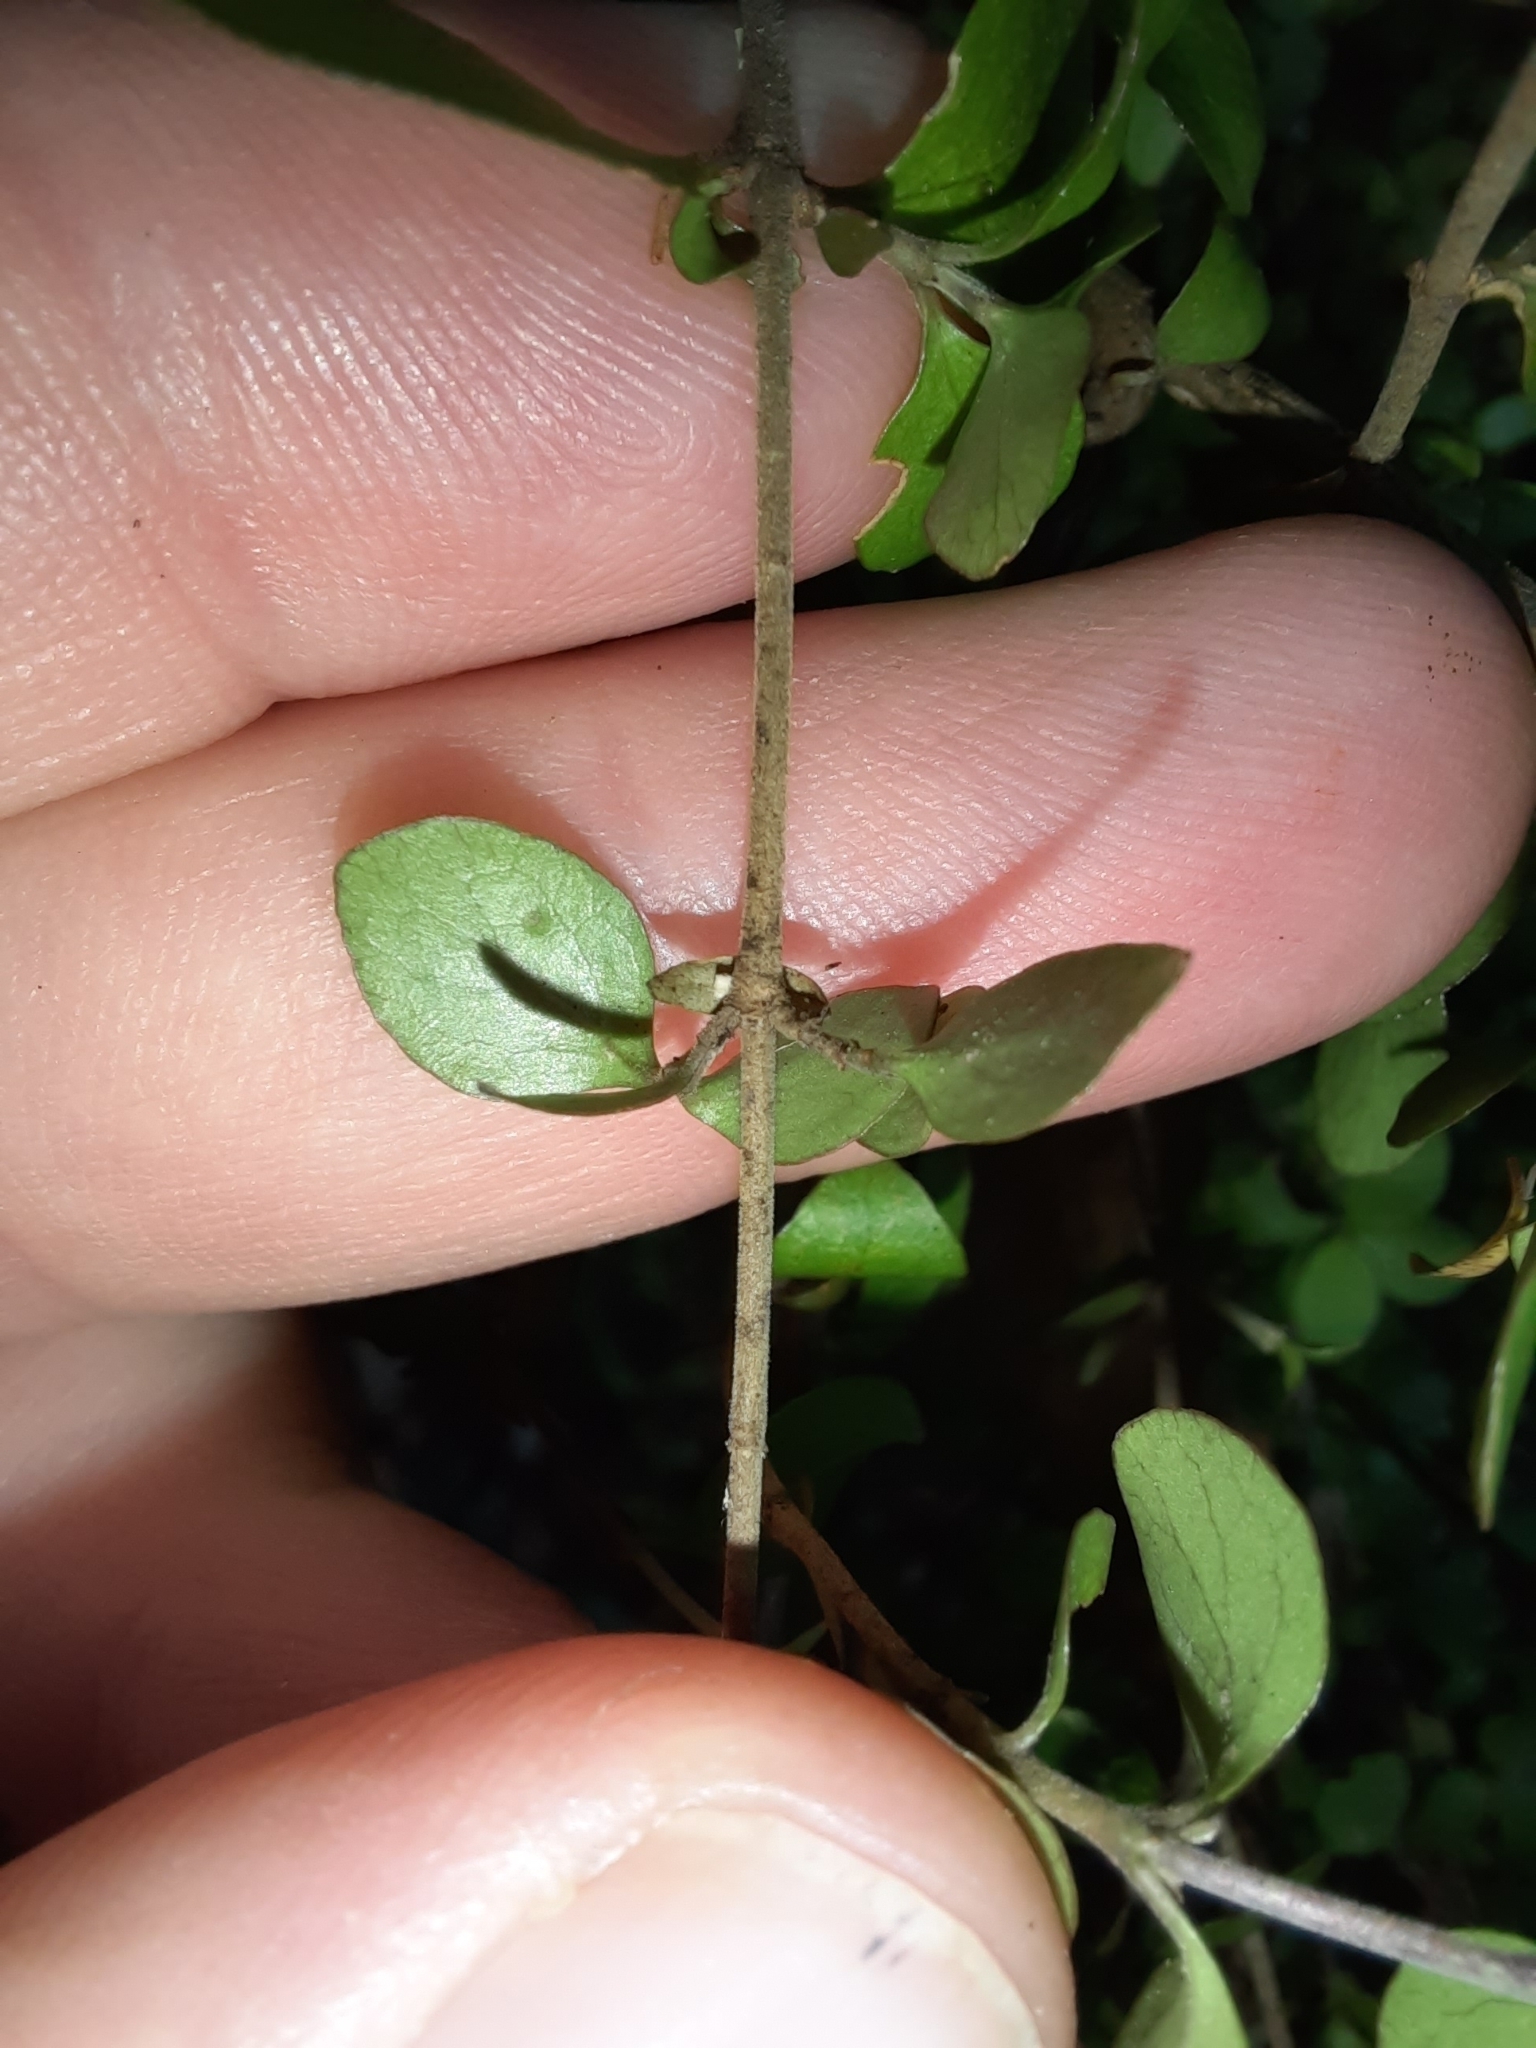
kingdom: Plantae
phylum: Tracheophyta
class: Magnoliopsida
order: Gentianales
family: Rubiaceae
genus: Coprosma
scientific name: Coprosma rhamnoides
